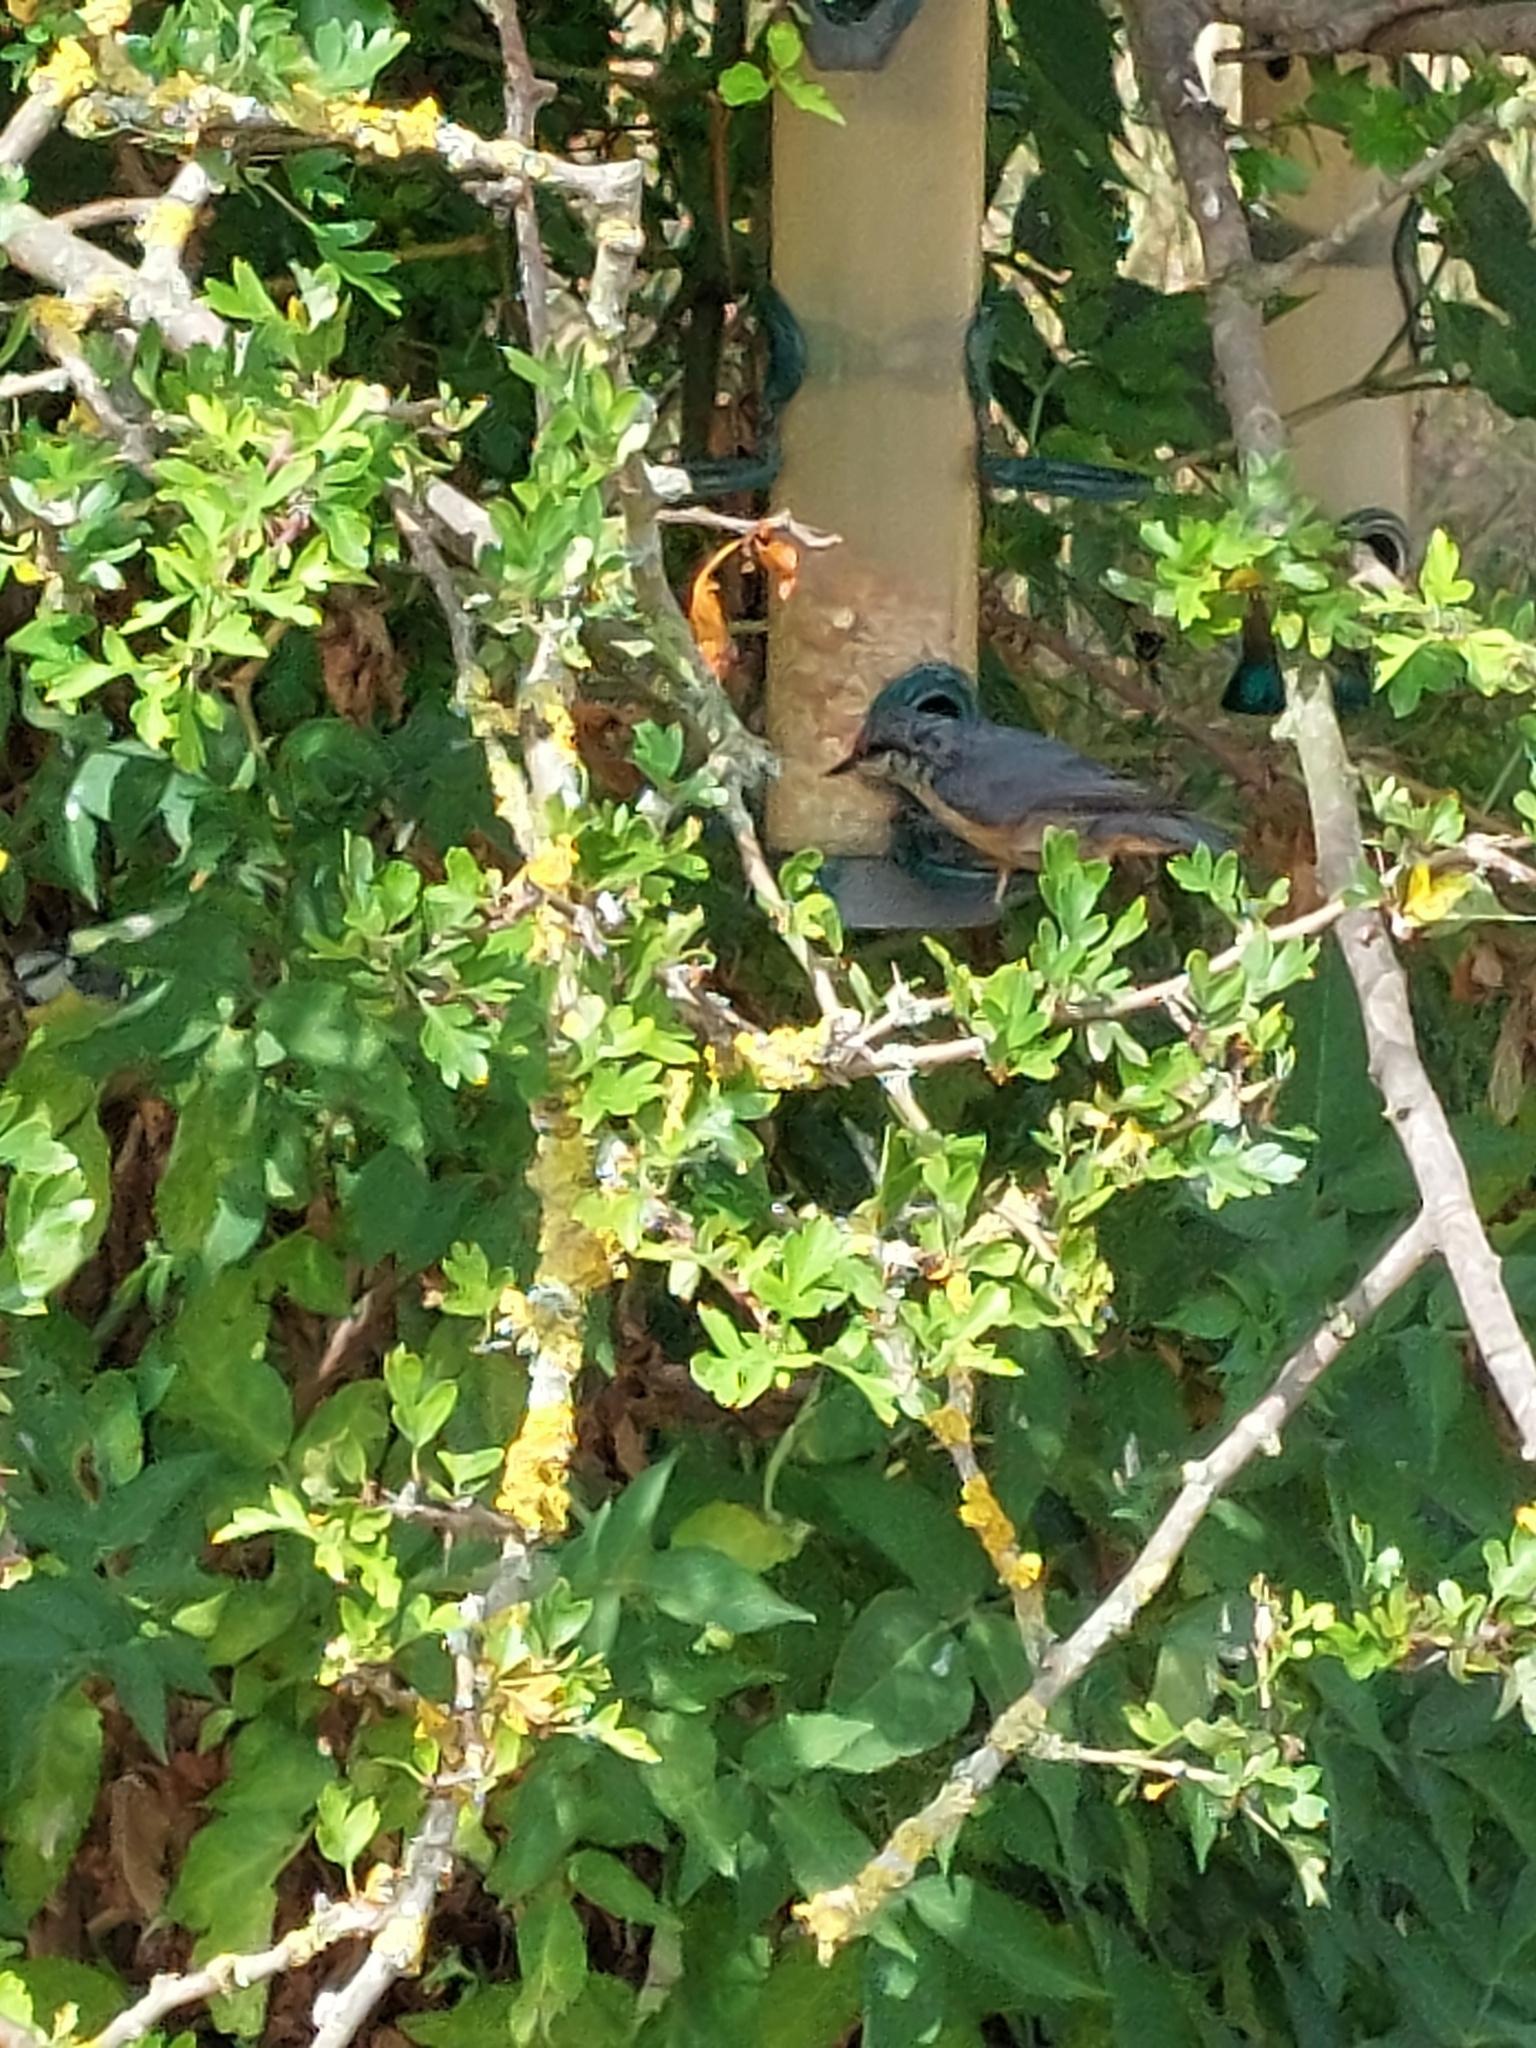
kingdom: Animalia
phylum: Chordata
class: Aves
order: Passeriformes
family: Sittidae
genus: Sitta
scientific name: Sitta europaea
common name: Eurasian nuthatch
